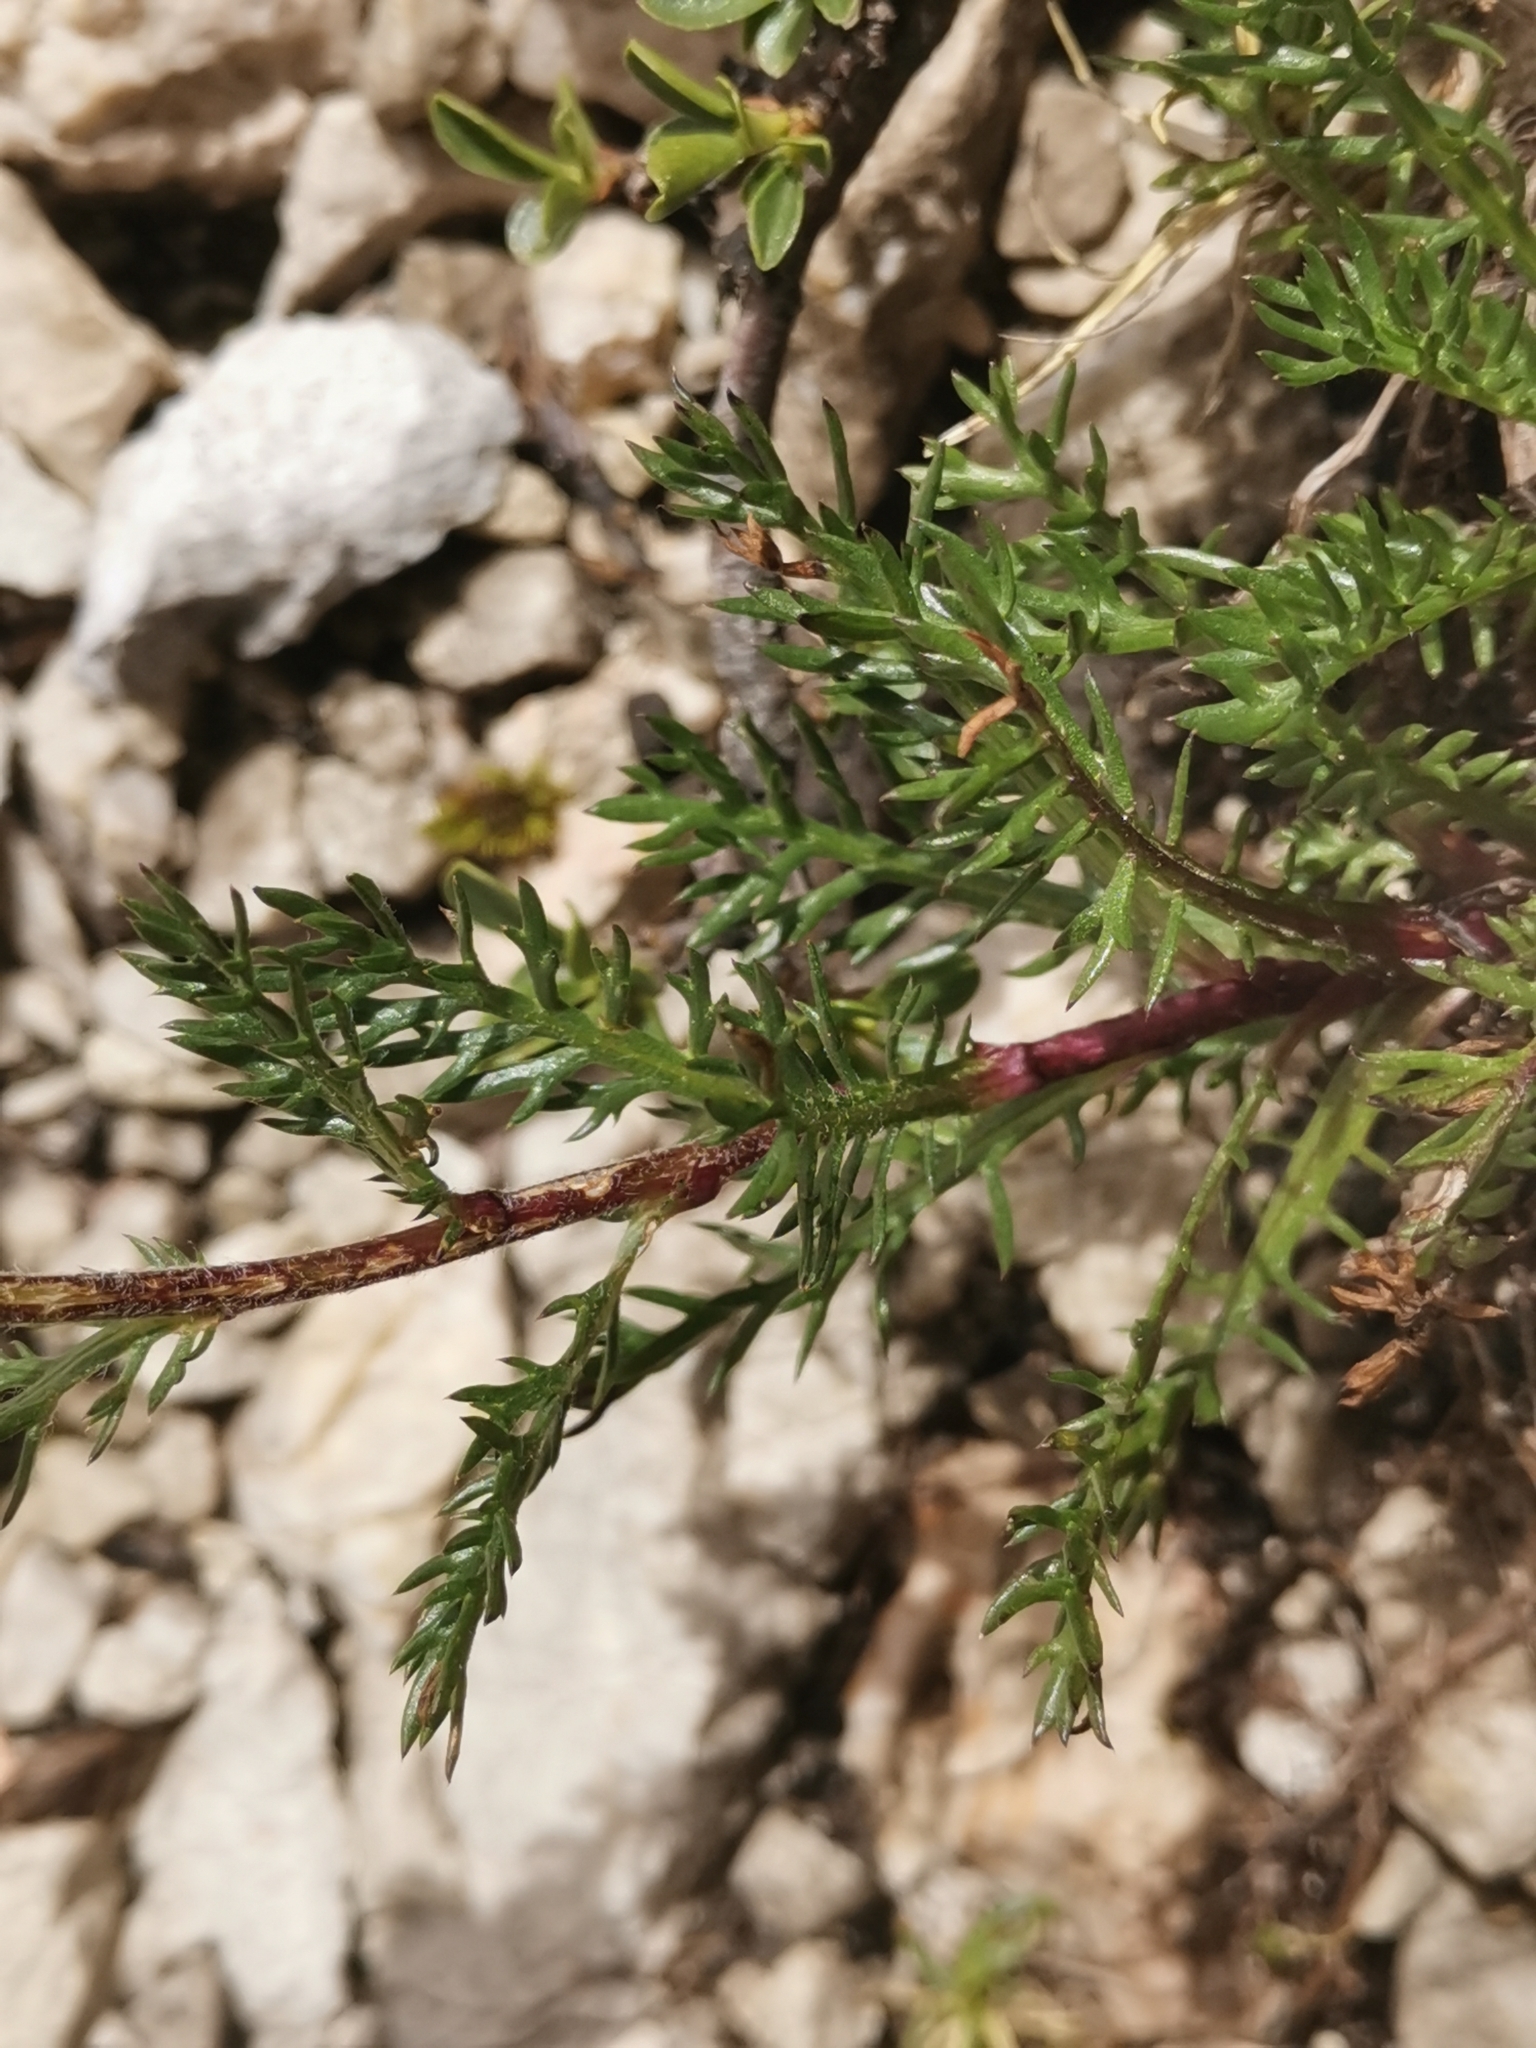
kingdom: Plantae
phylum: Tracheophyta
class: Magnoliopsida
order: Asterales
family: Asteraceae
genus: Achillea
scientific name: Achillea atrata
